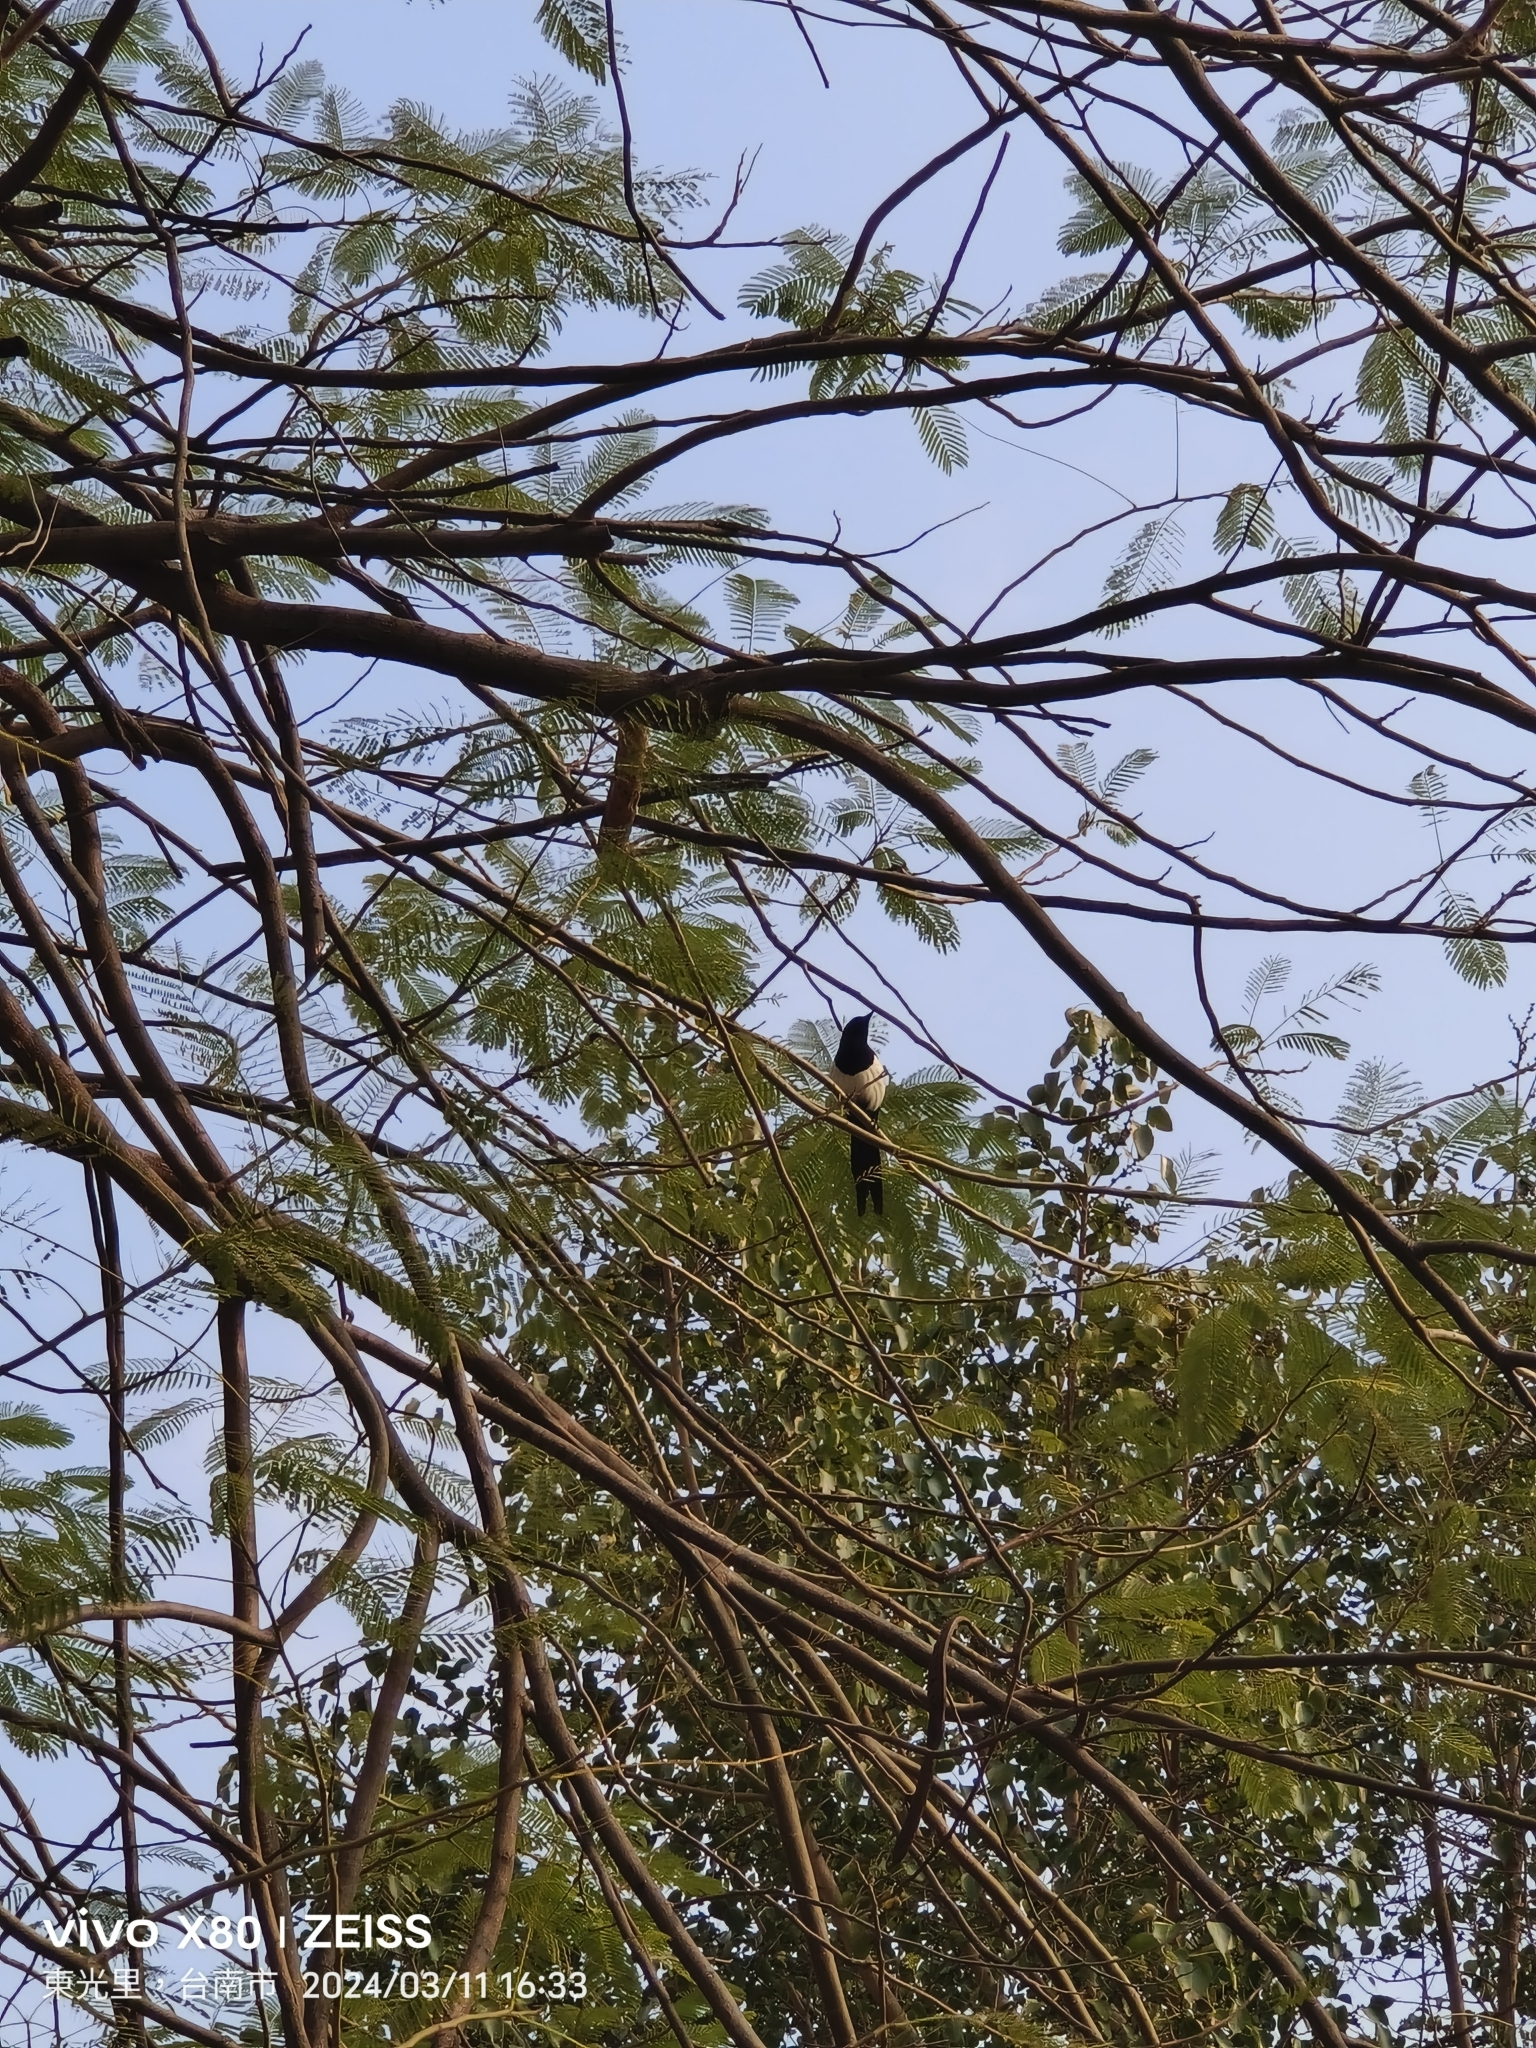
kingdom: Animalia
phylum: Chordata
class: Aves
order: Passeriformes
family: Corvidae
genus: Pica
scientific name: Pica serica
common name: Oriental magpie
